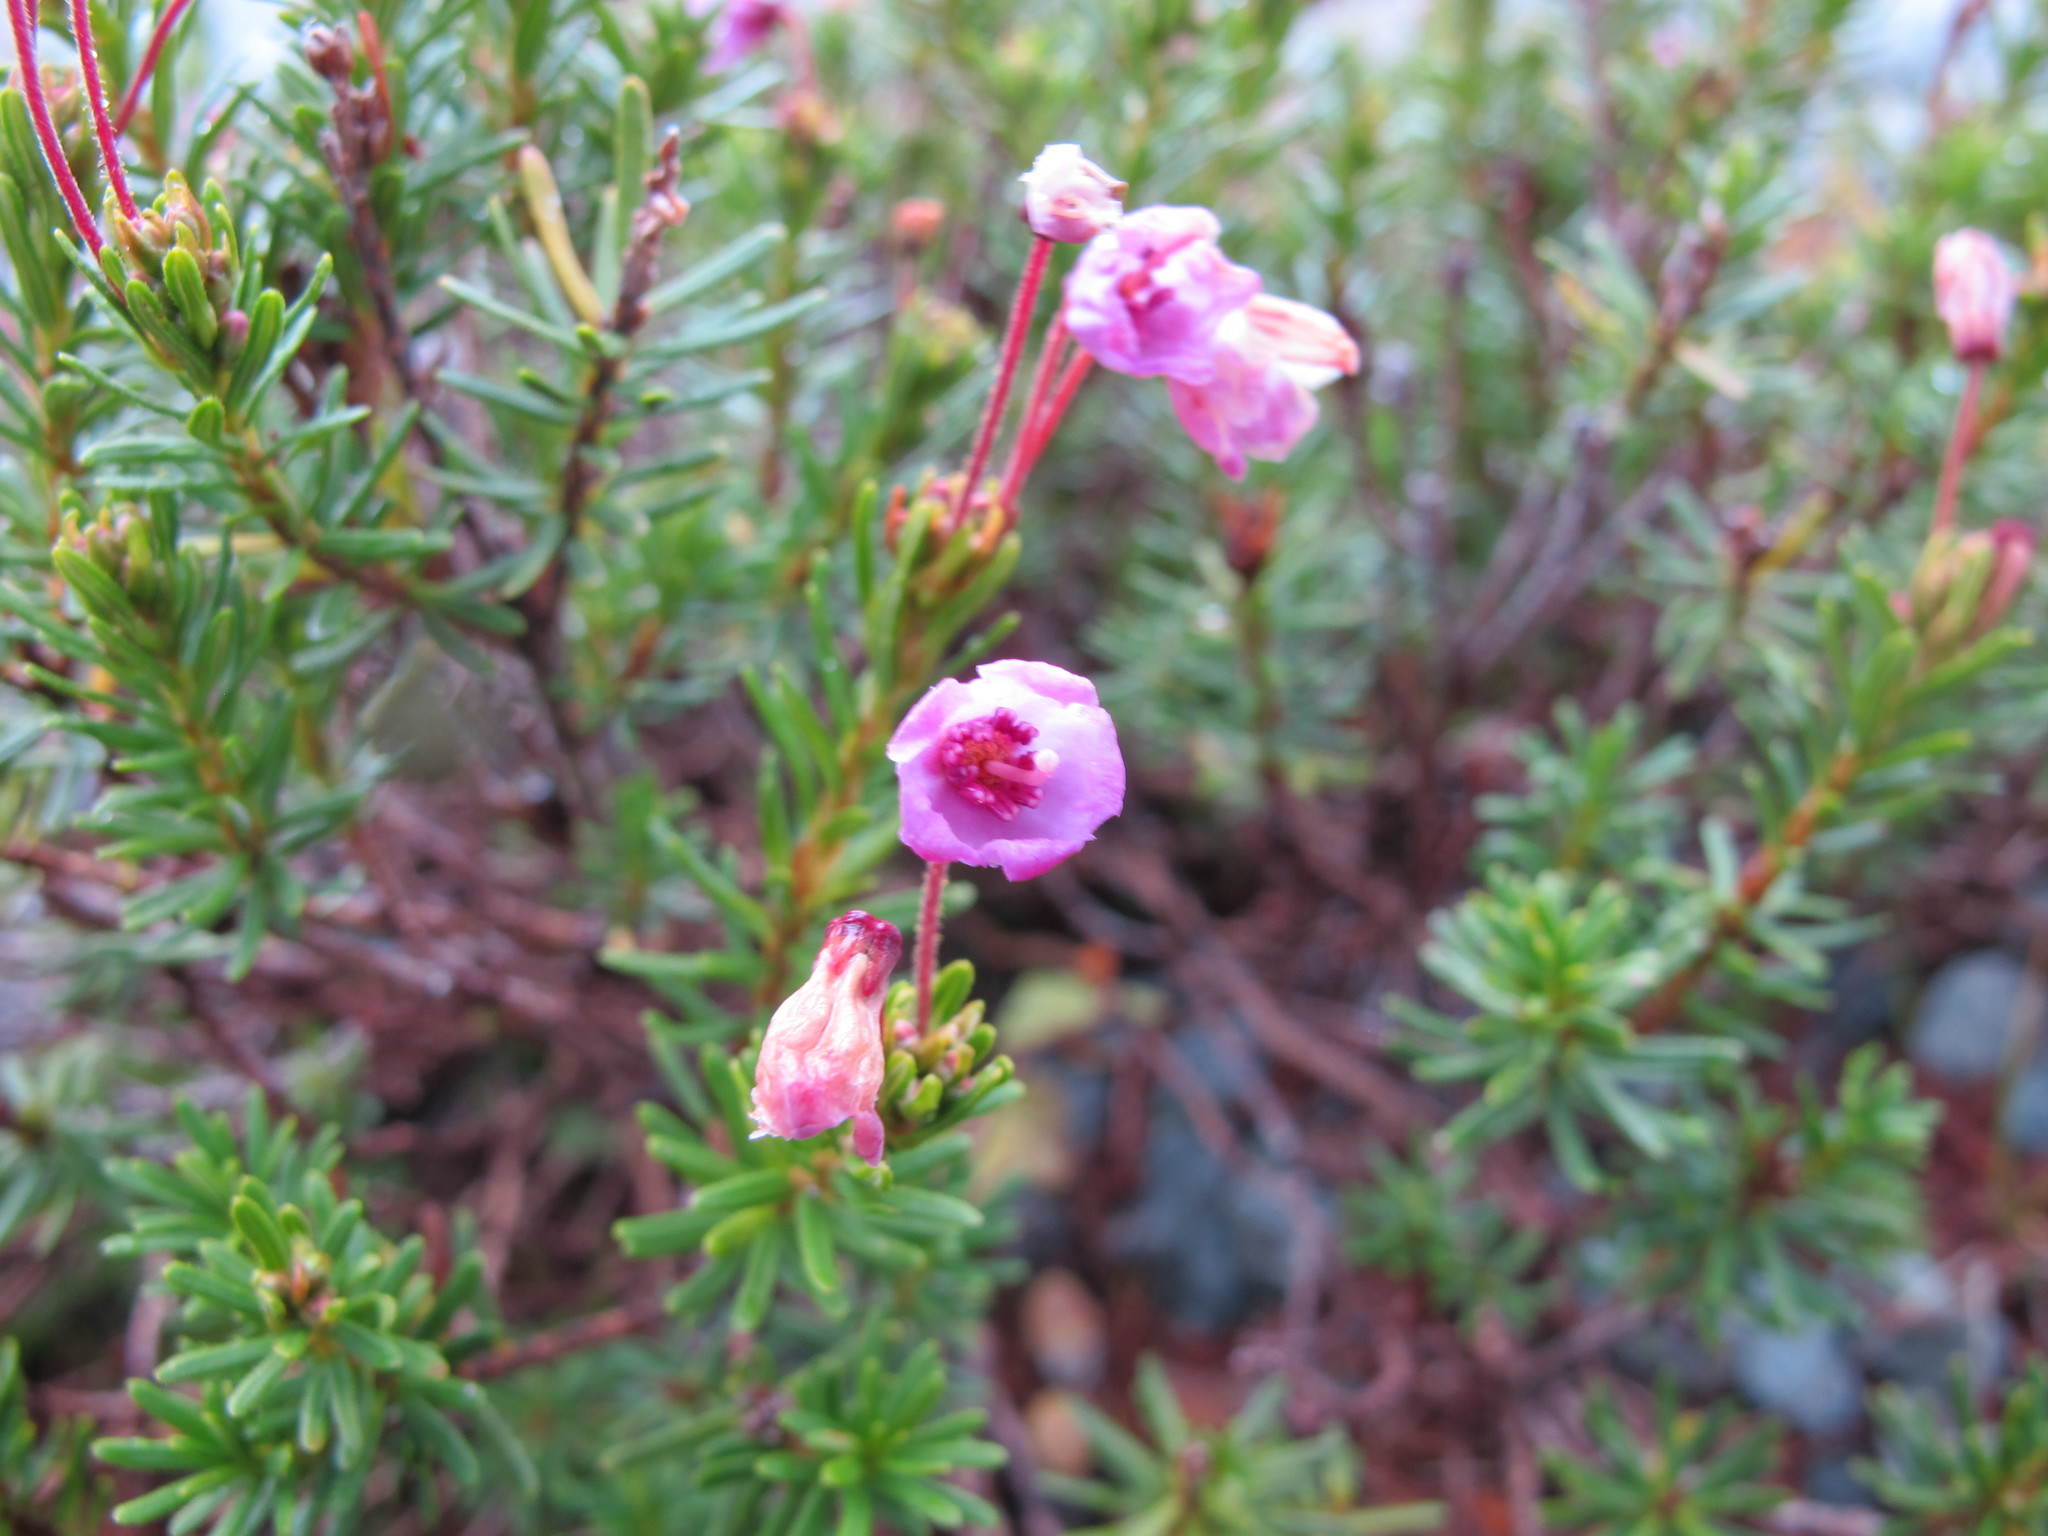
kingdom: Plantae
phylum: Tracheophyta
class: Magnoliopsida
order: Ericales
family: Ericaceae
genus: Phyllodoce
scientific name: Phyllodoce empetriformis
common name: Pink mountain heather
